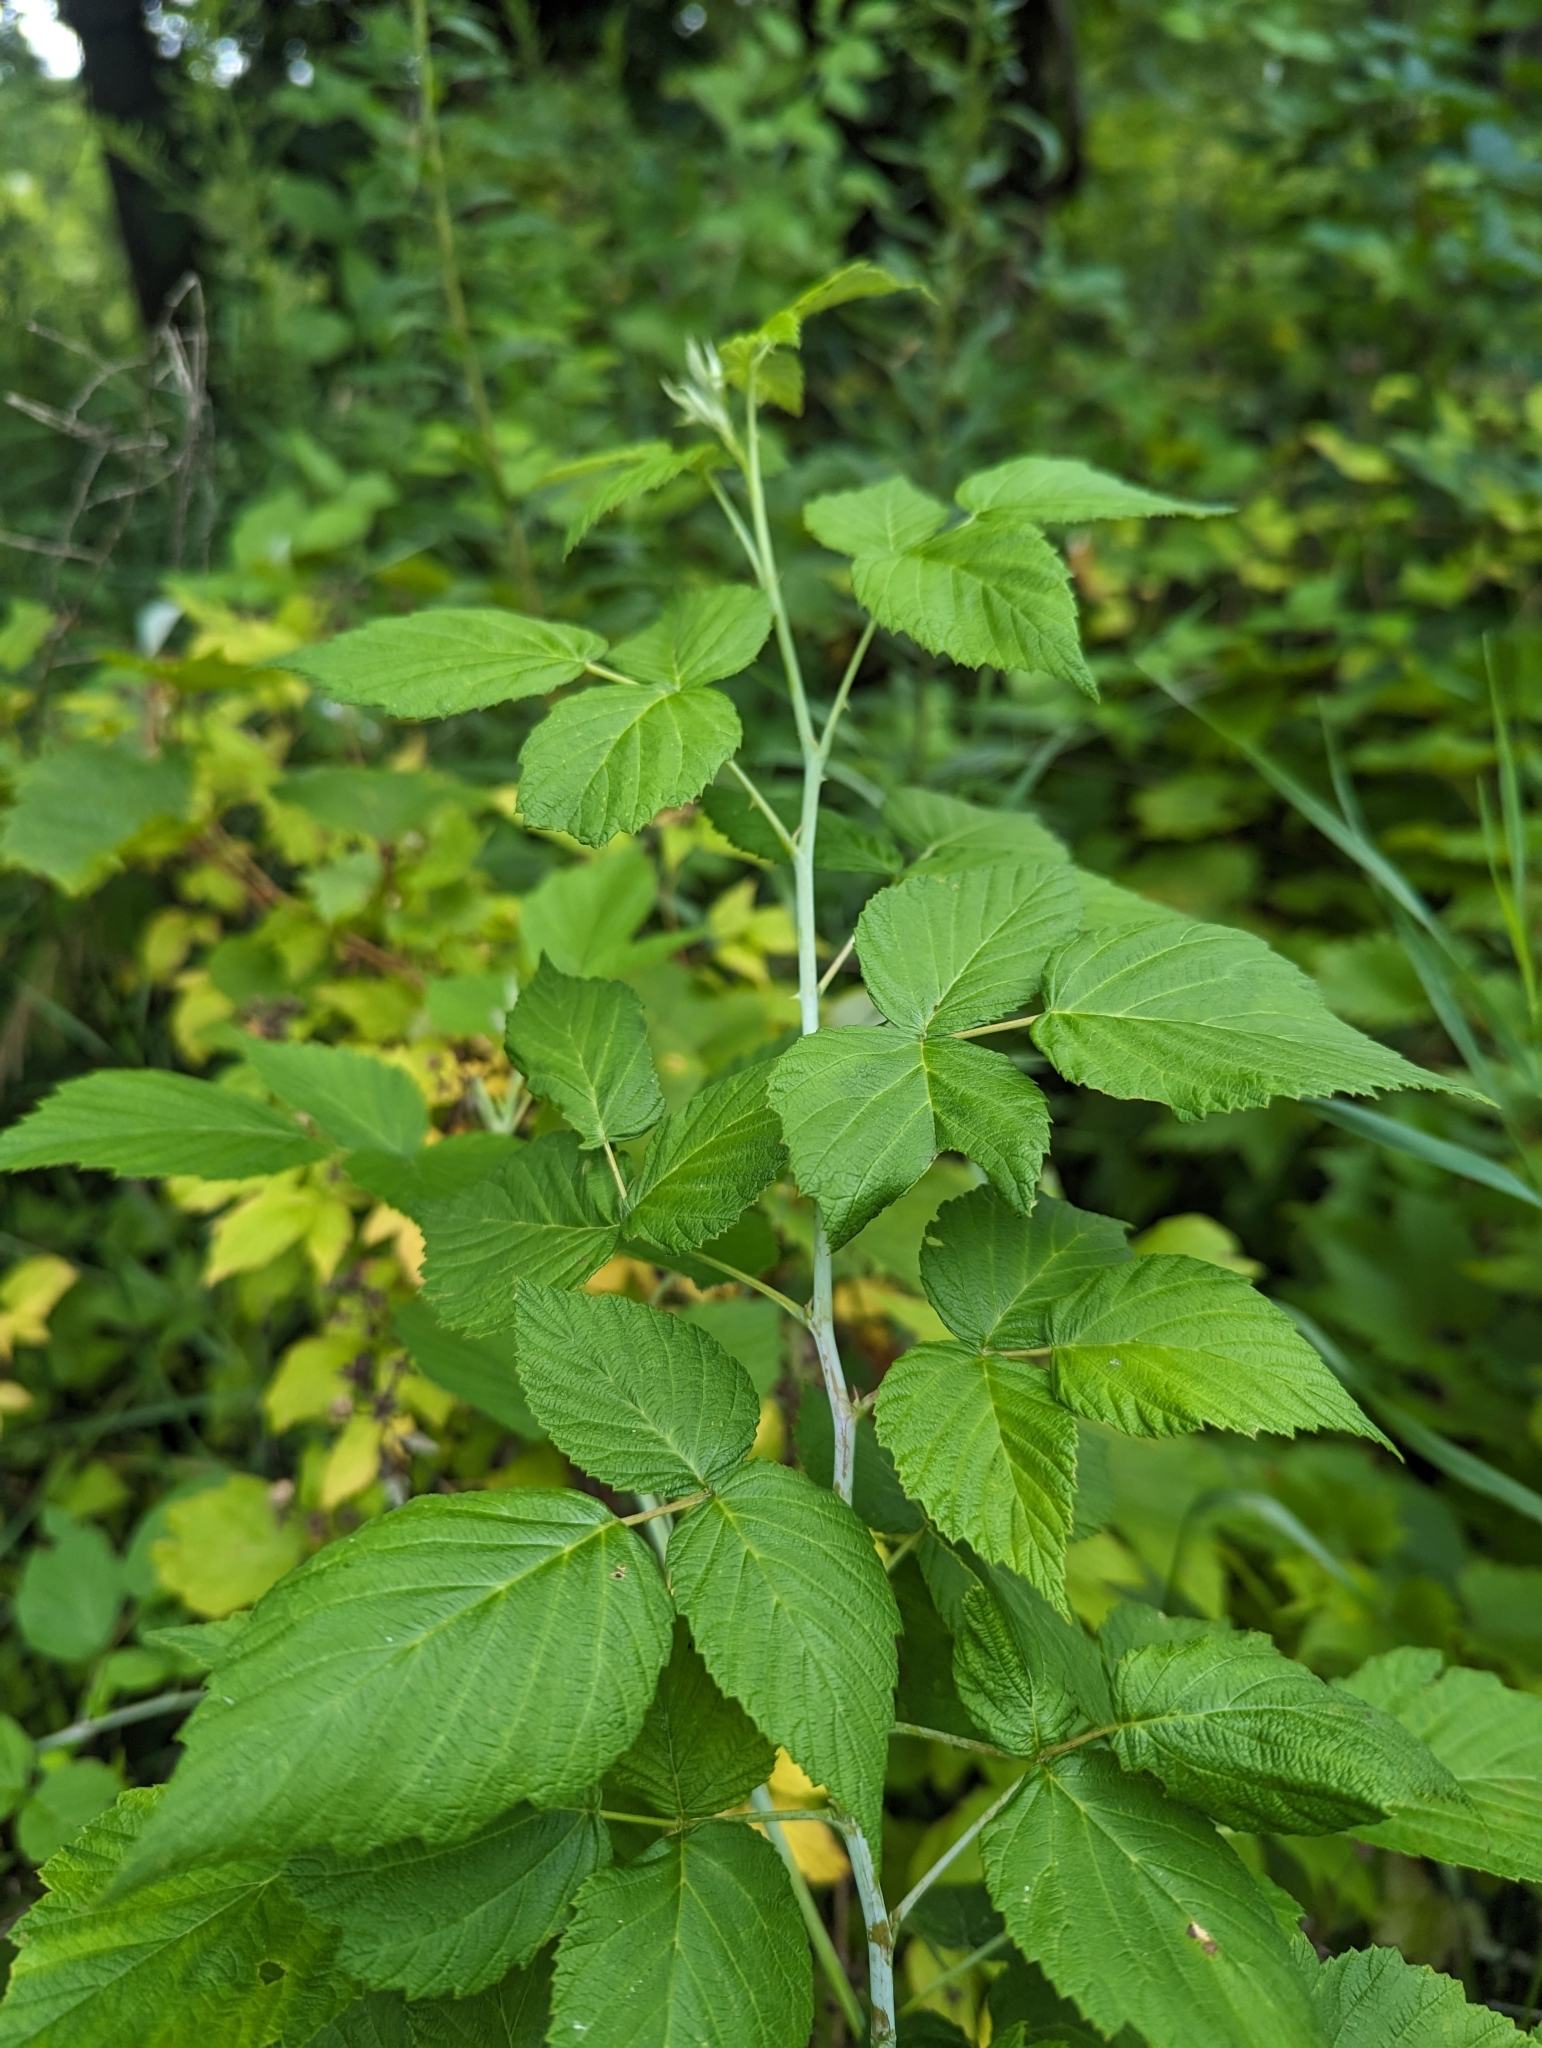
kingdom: Plantae
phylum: Tracheophyta
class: Magnoliopsida
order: Rosales
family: Rosaceae
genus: Rubus
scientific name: Rubus occidentalis
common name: Black raspberry
